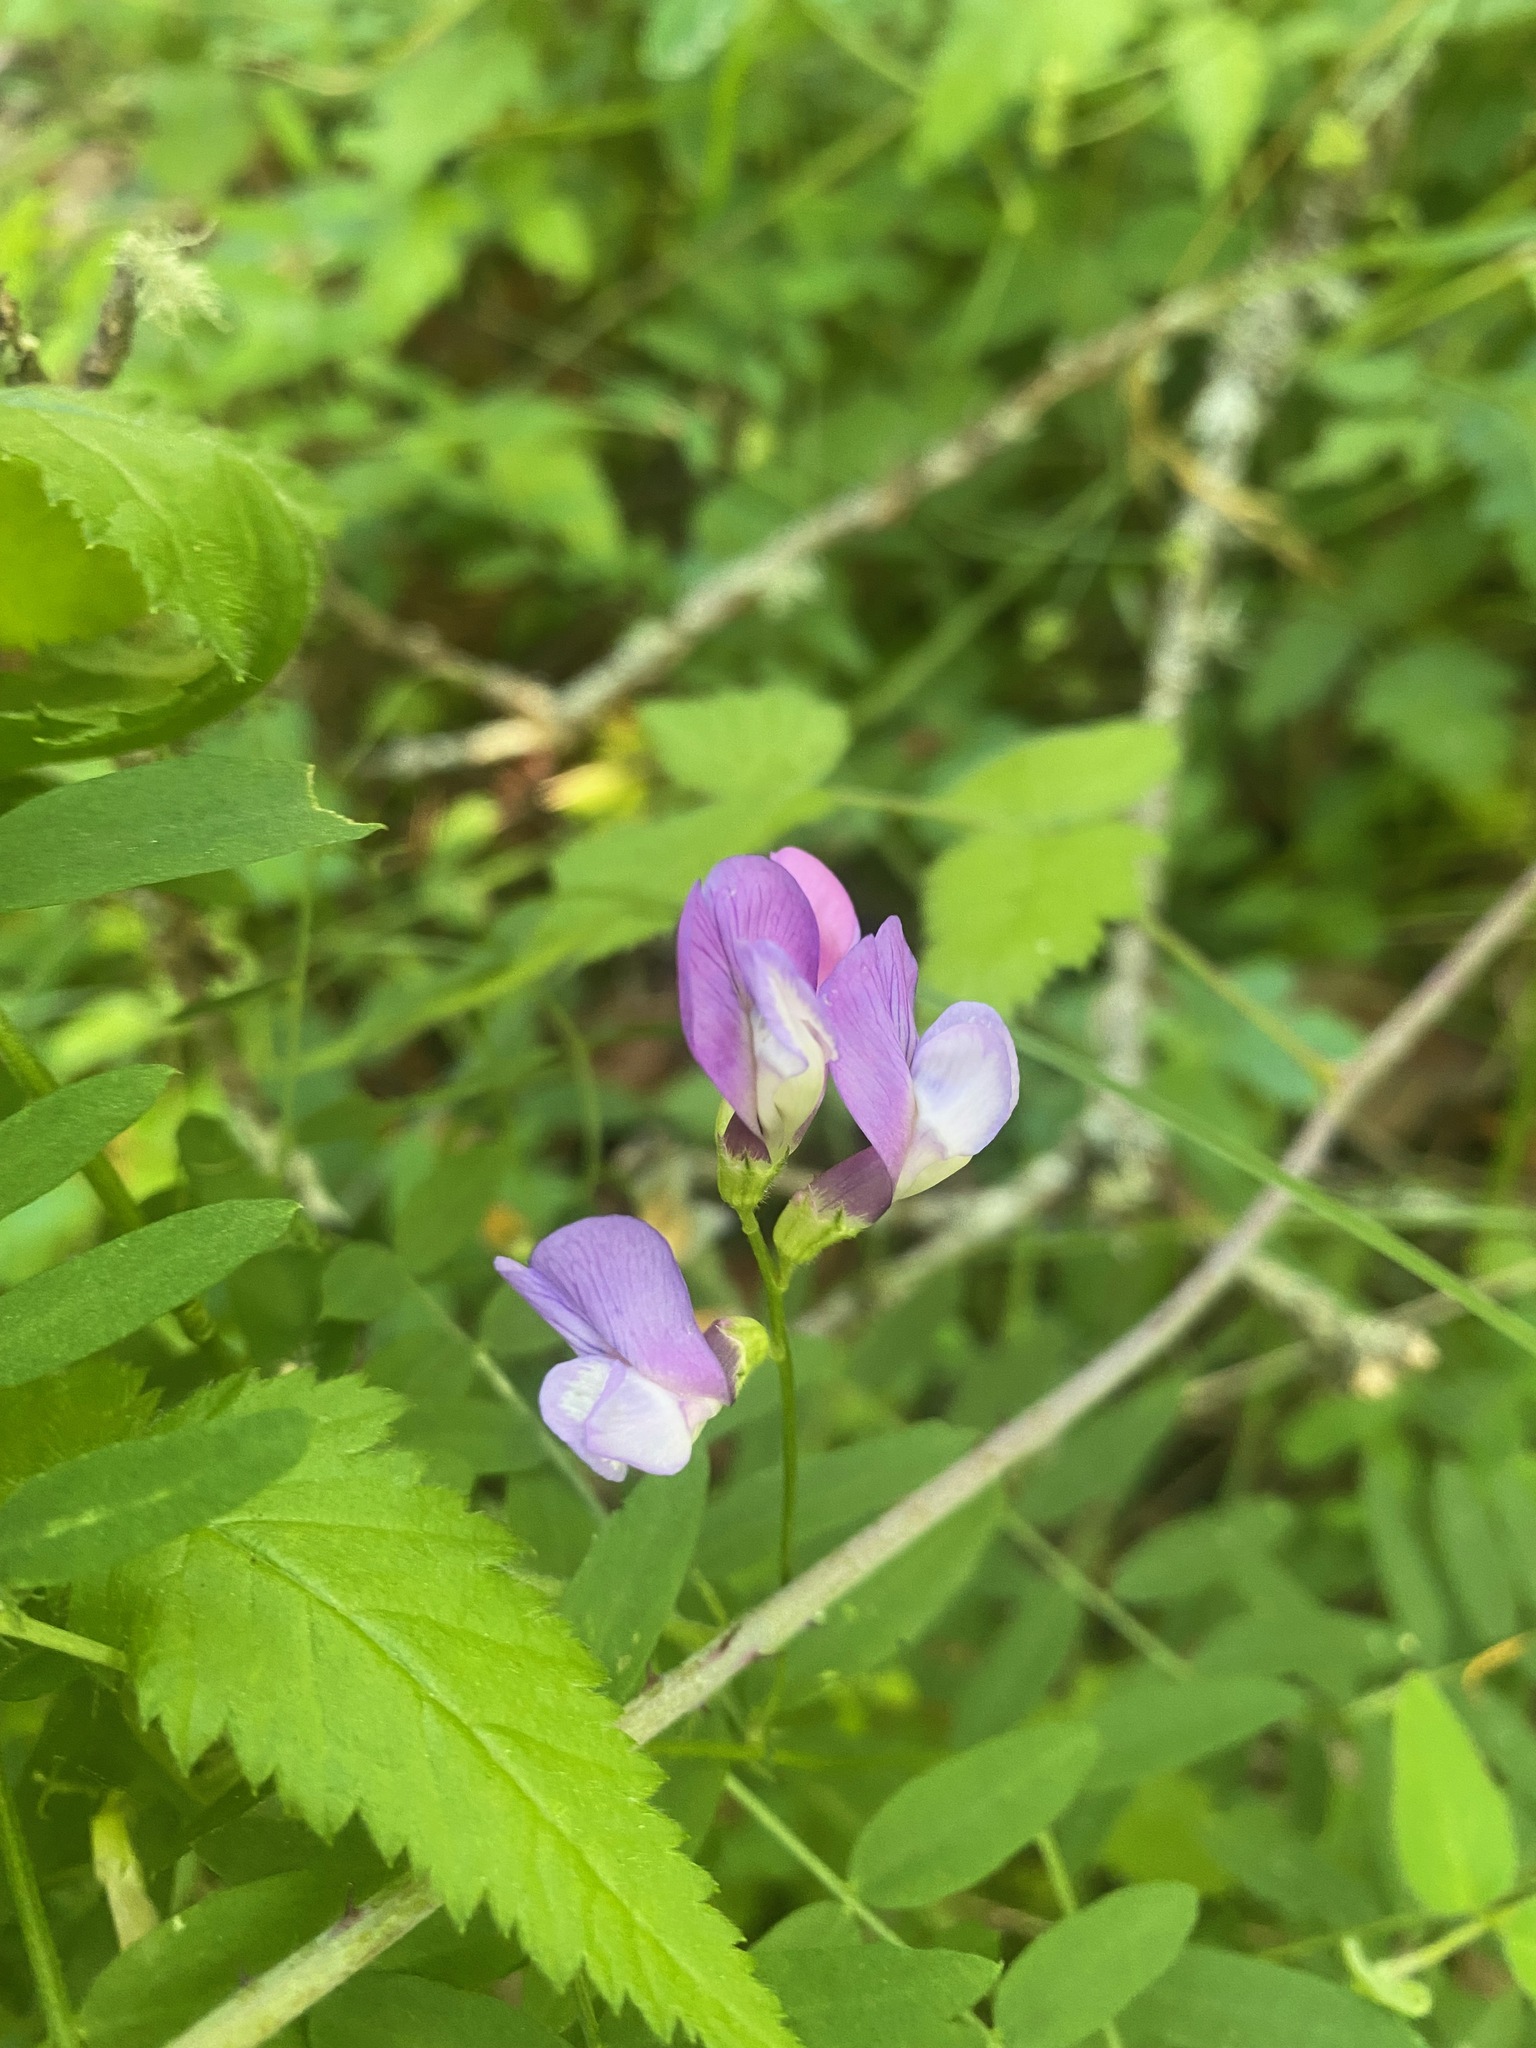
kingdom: Plantae
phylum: Tracheophyta
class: Magnoliopsida
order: Fabales
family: Fabaceae
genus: Vicia
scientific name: Vicia americana
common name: American vetch
